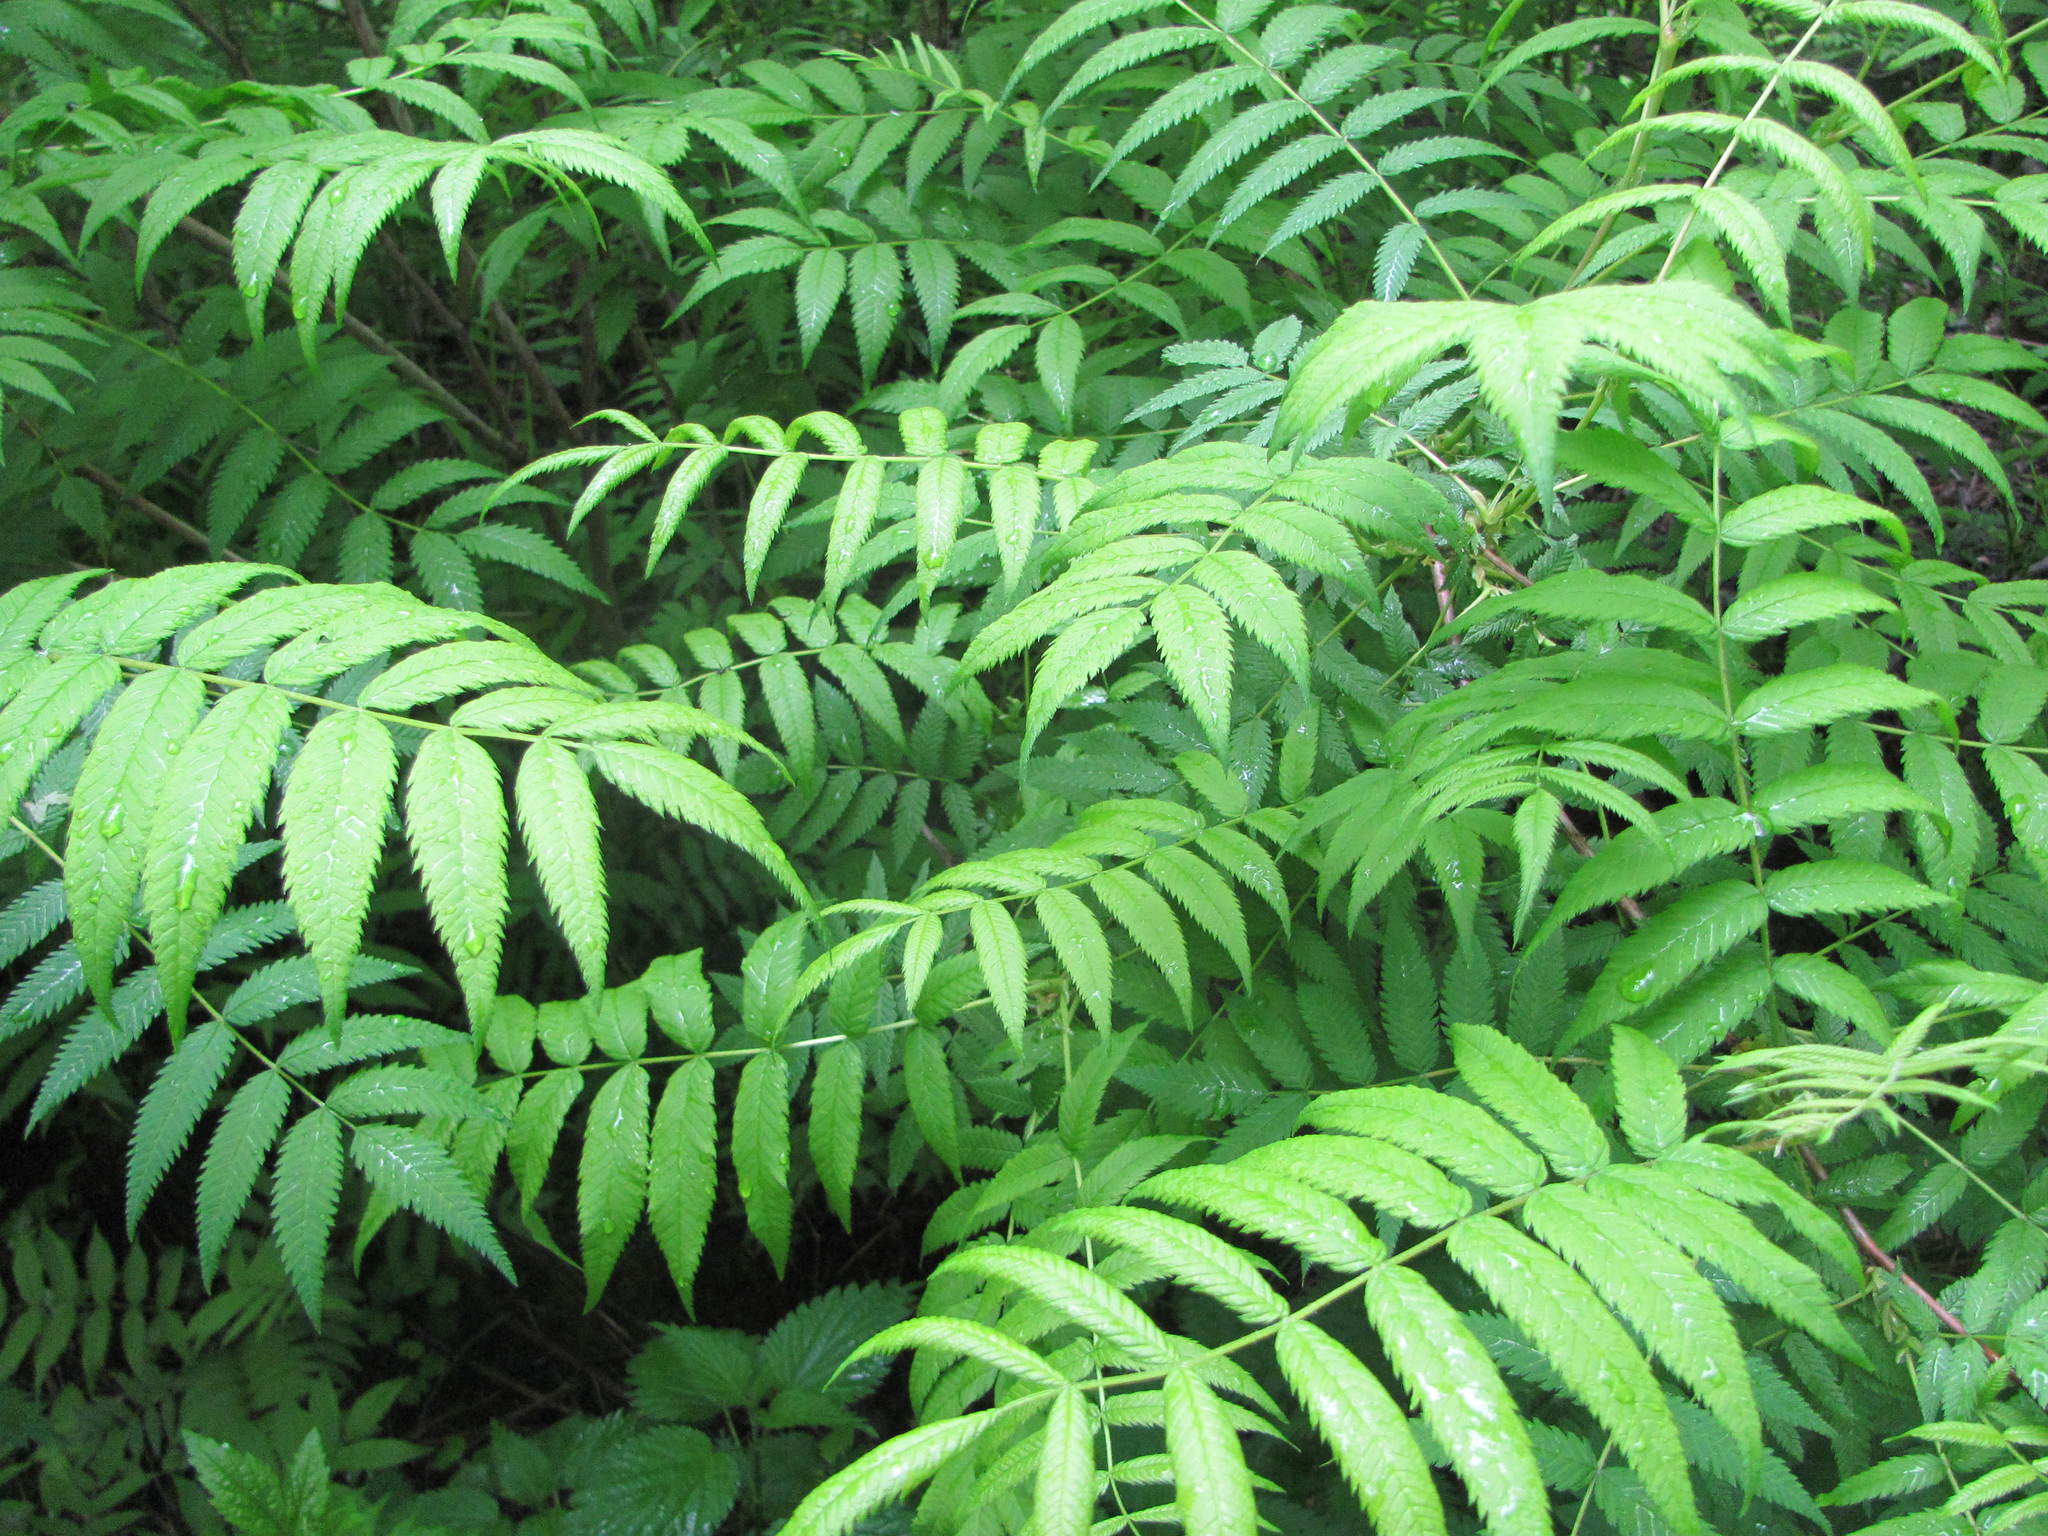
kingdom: Plantae
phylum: Tracheophyta
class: Magnoliopsida
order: Rosales
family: Rosaceae
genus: Sorbaria
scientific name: Sorbaria sorbifolia
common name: False spiraea
